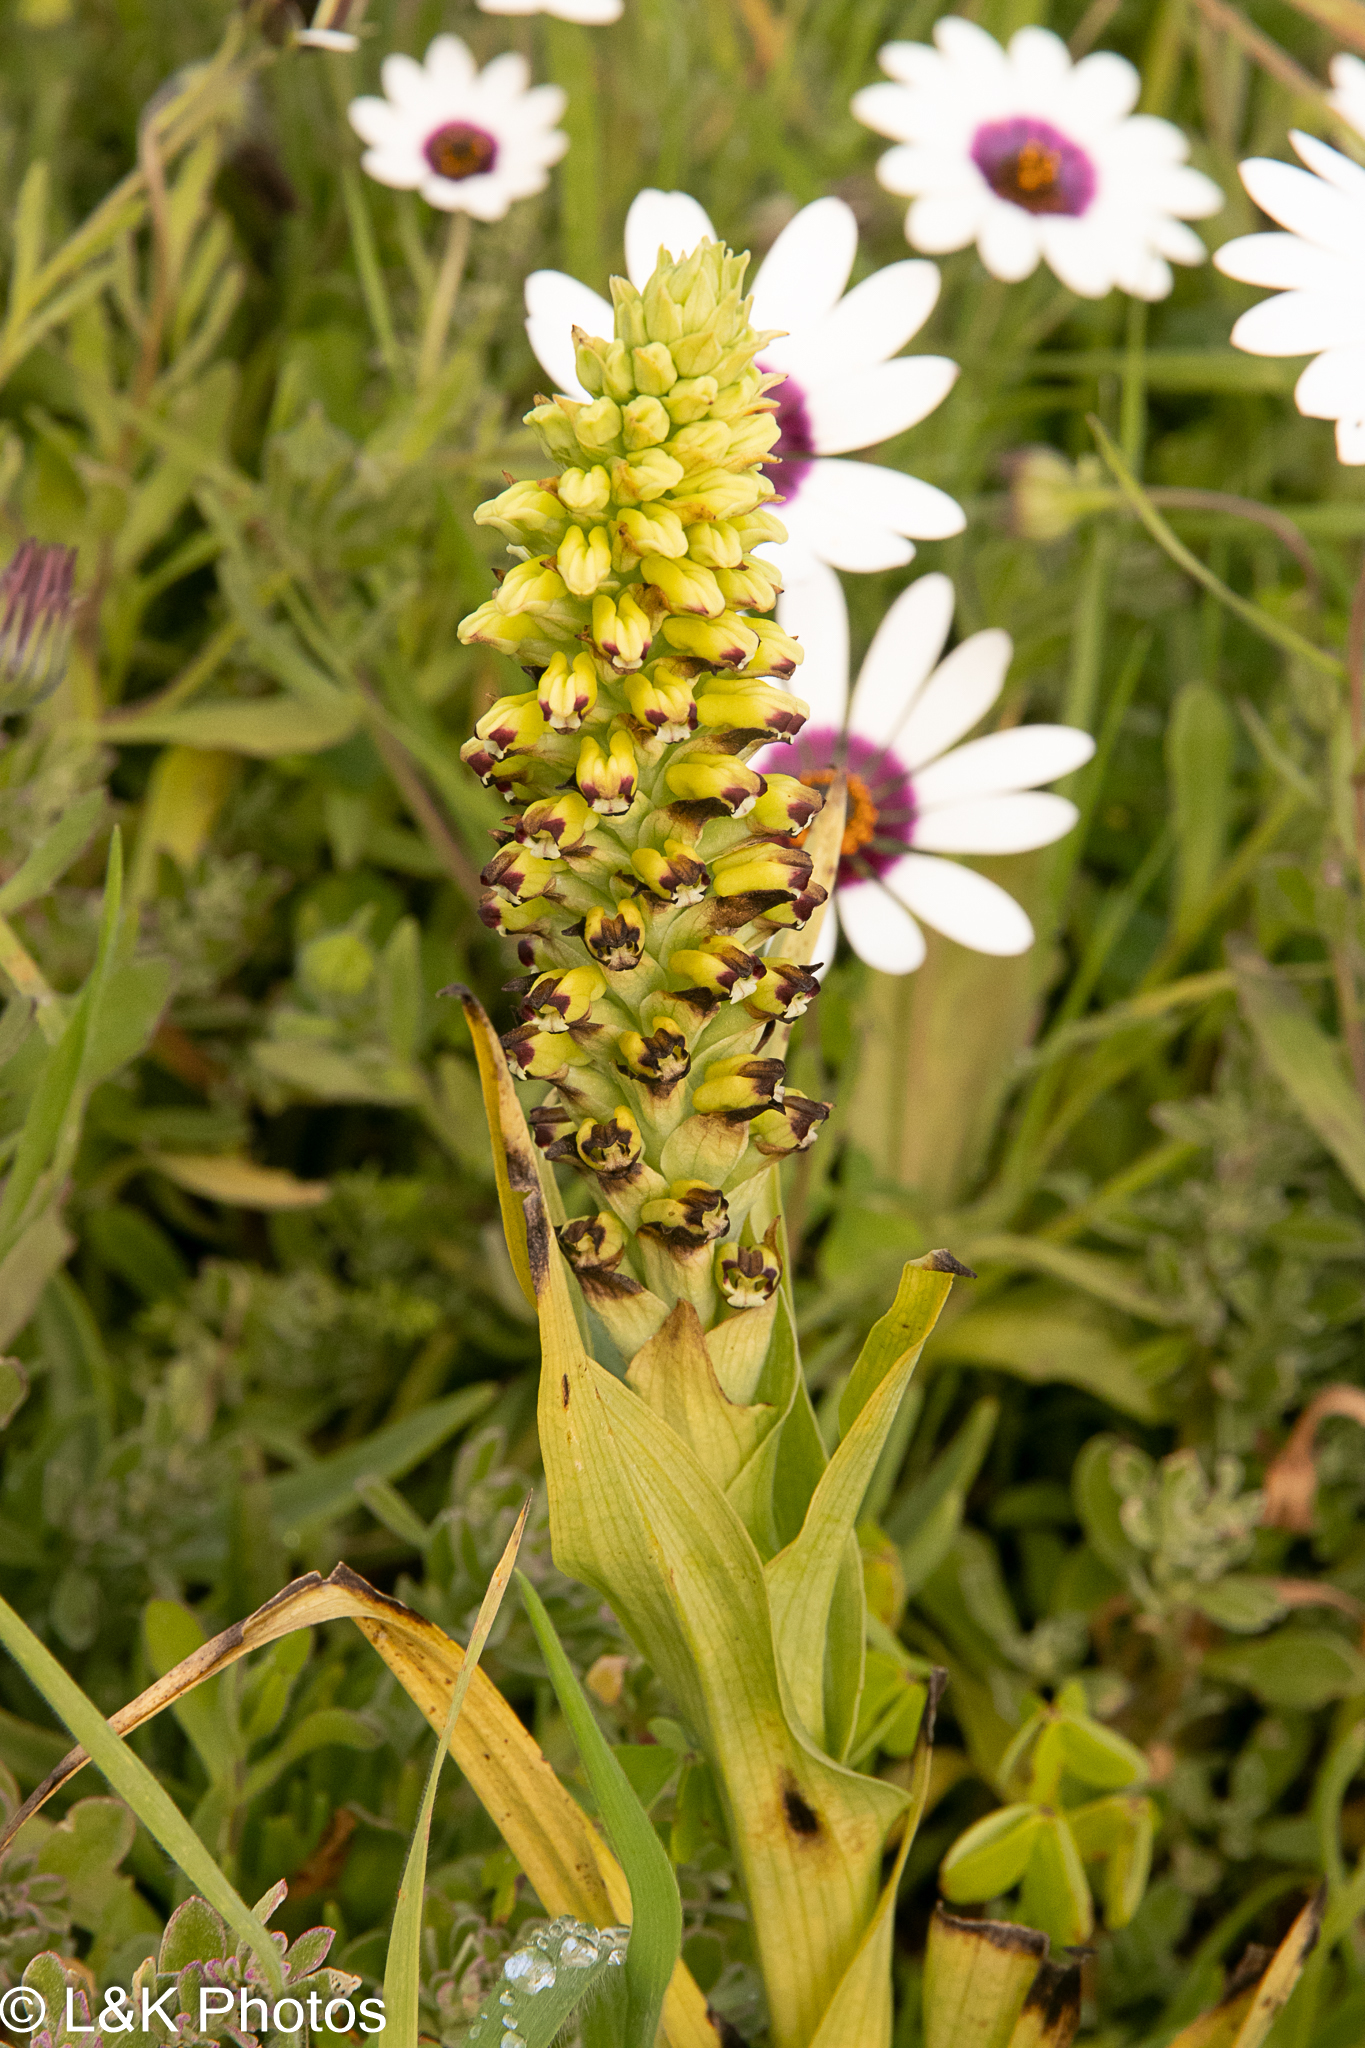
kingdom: Plantae
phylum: Tracheophyta
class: Liliopsida
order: Asparagales
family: Orchidaceae
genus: Corycium
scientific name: Corycium orobanchoides
